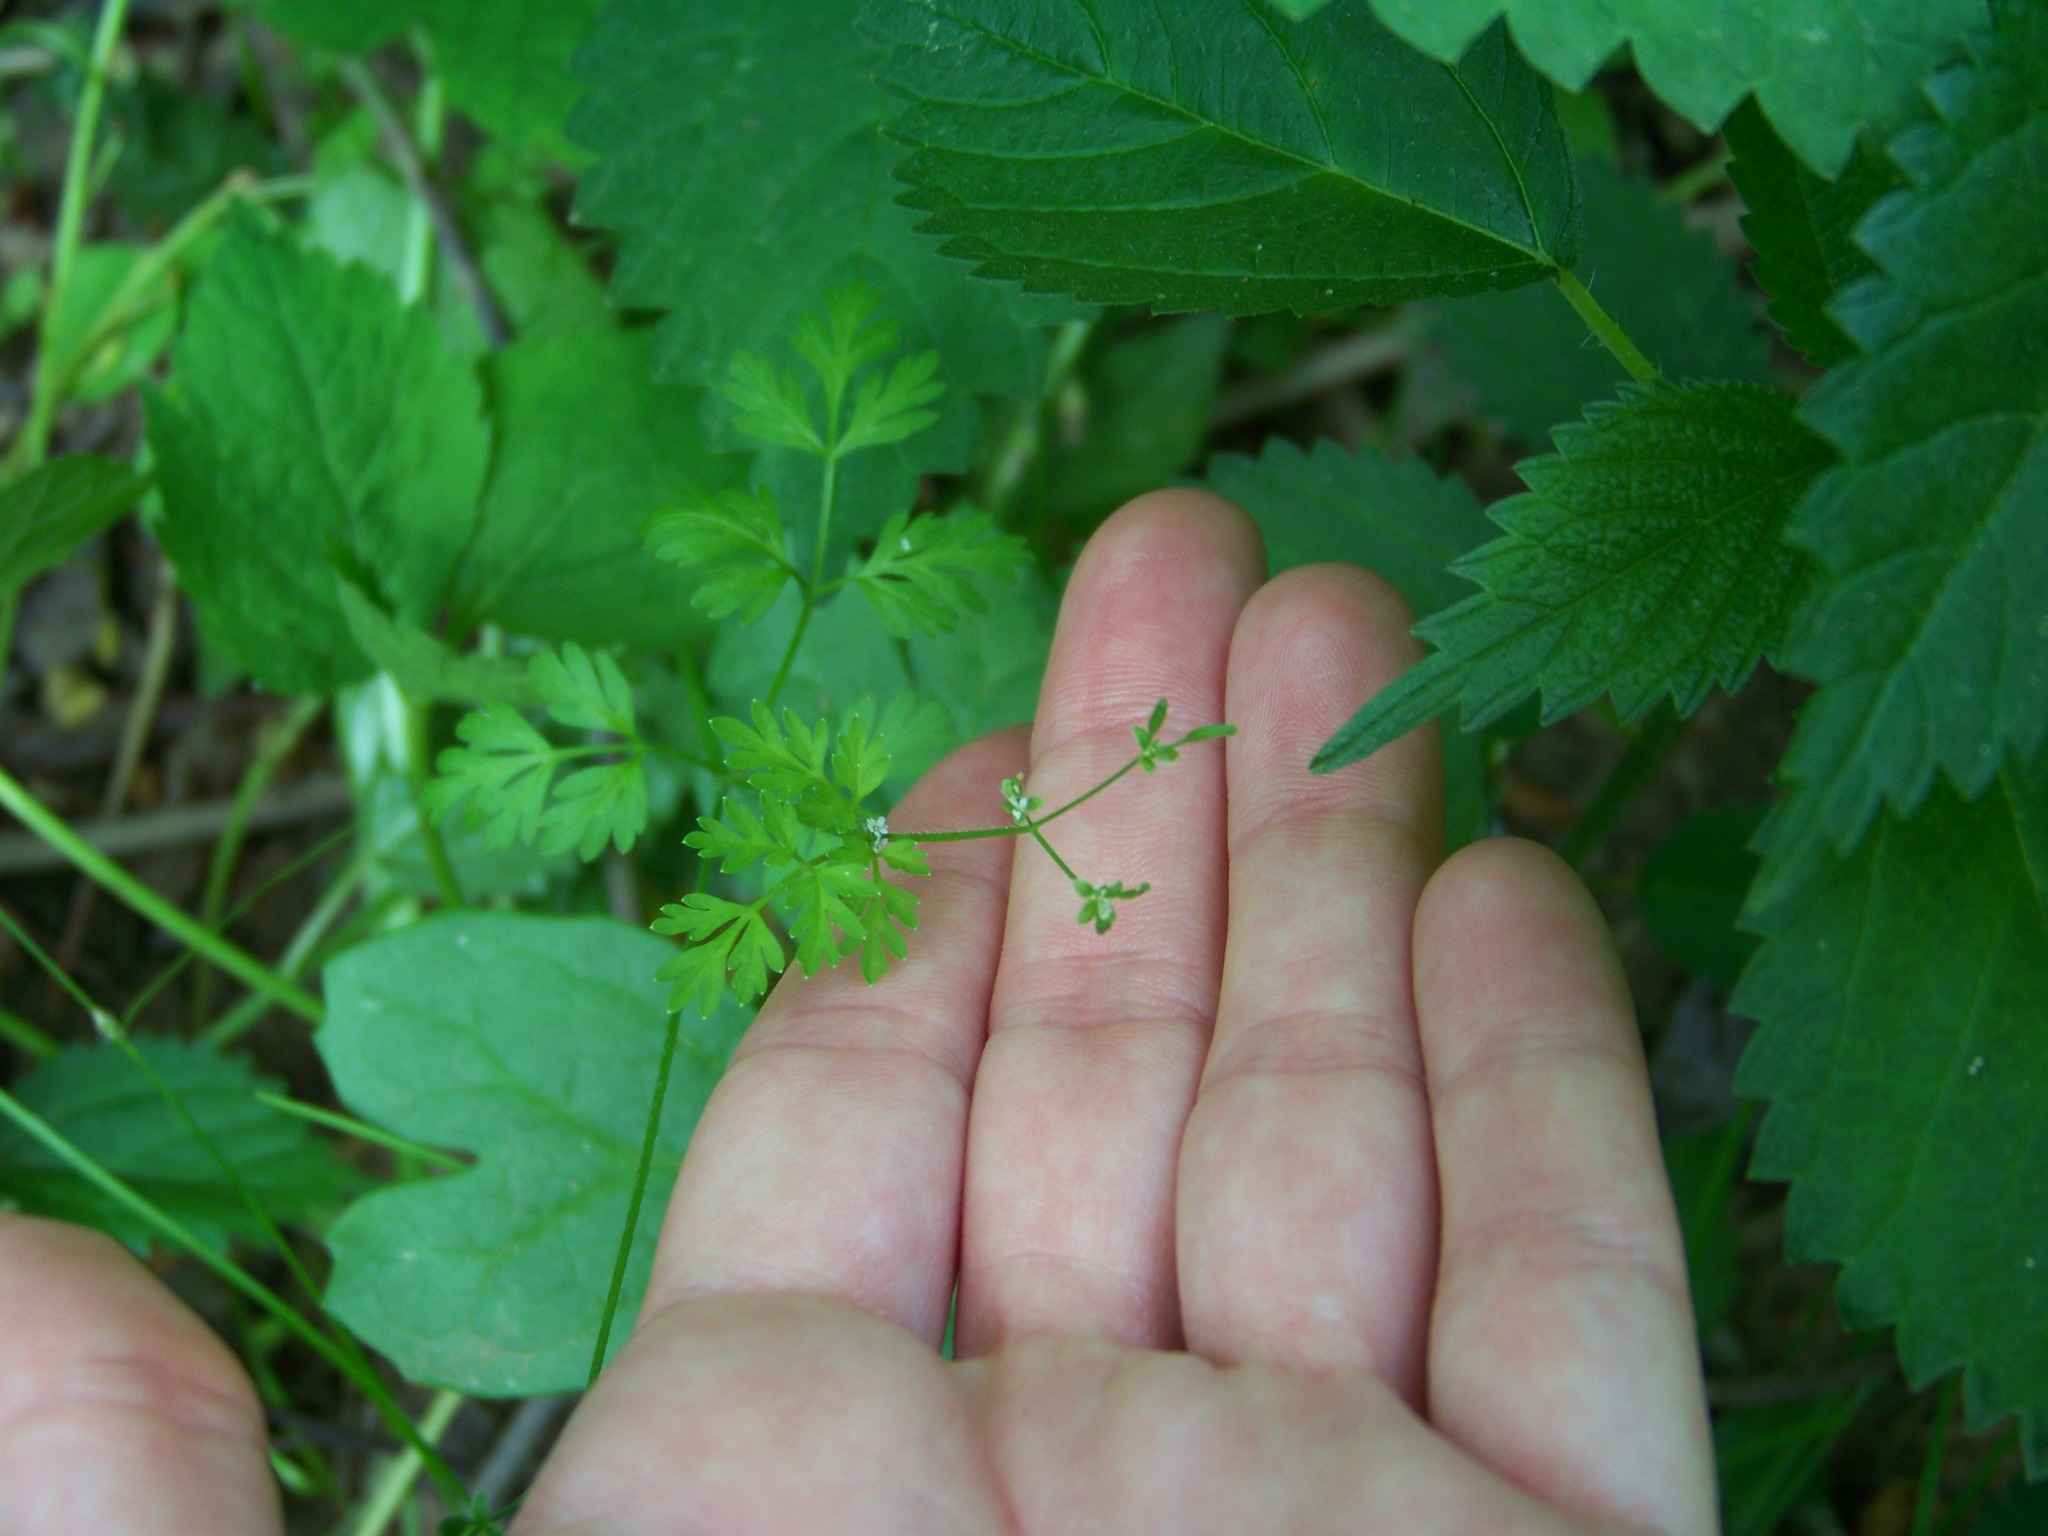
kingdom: Plantae
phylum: Tracheophyta
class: Magnoliopsida
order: Apiales
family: Apiaceae
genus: Chaerophyllum
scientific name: Chaerophyllum procumbens
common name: Spreading chervil
